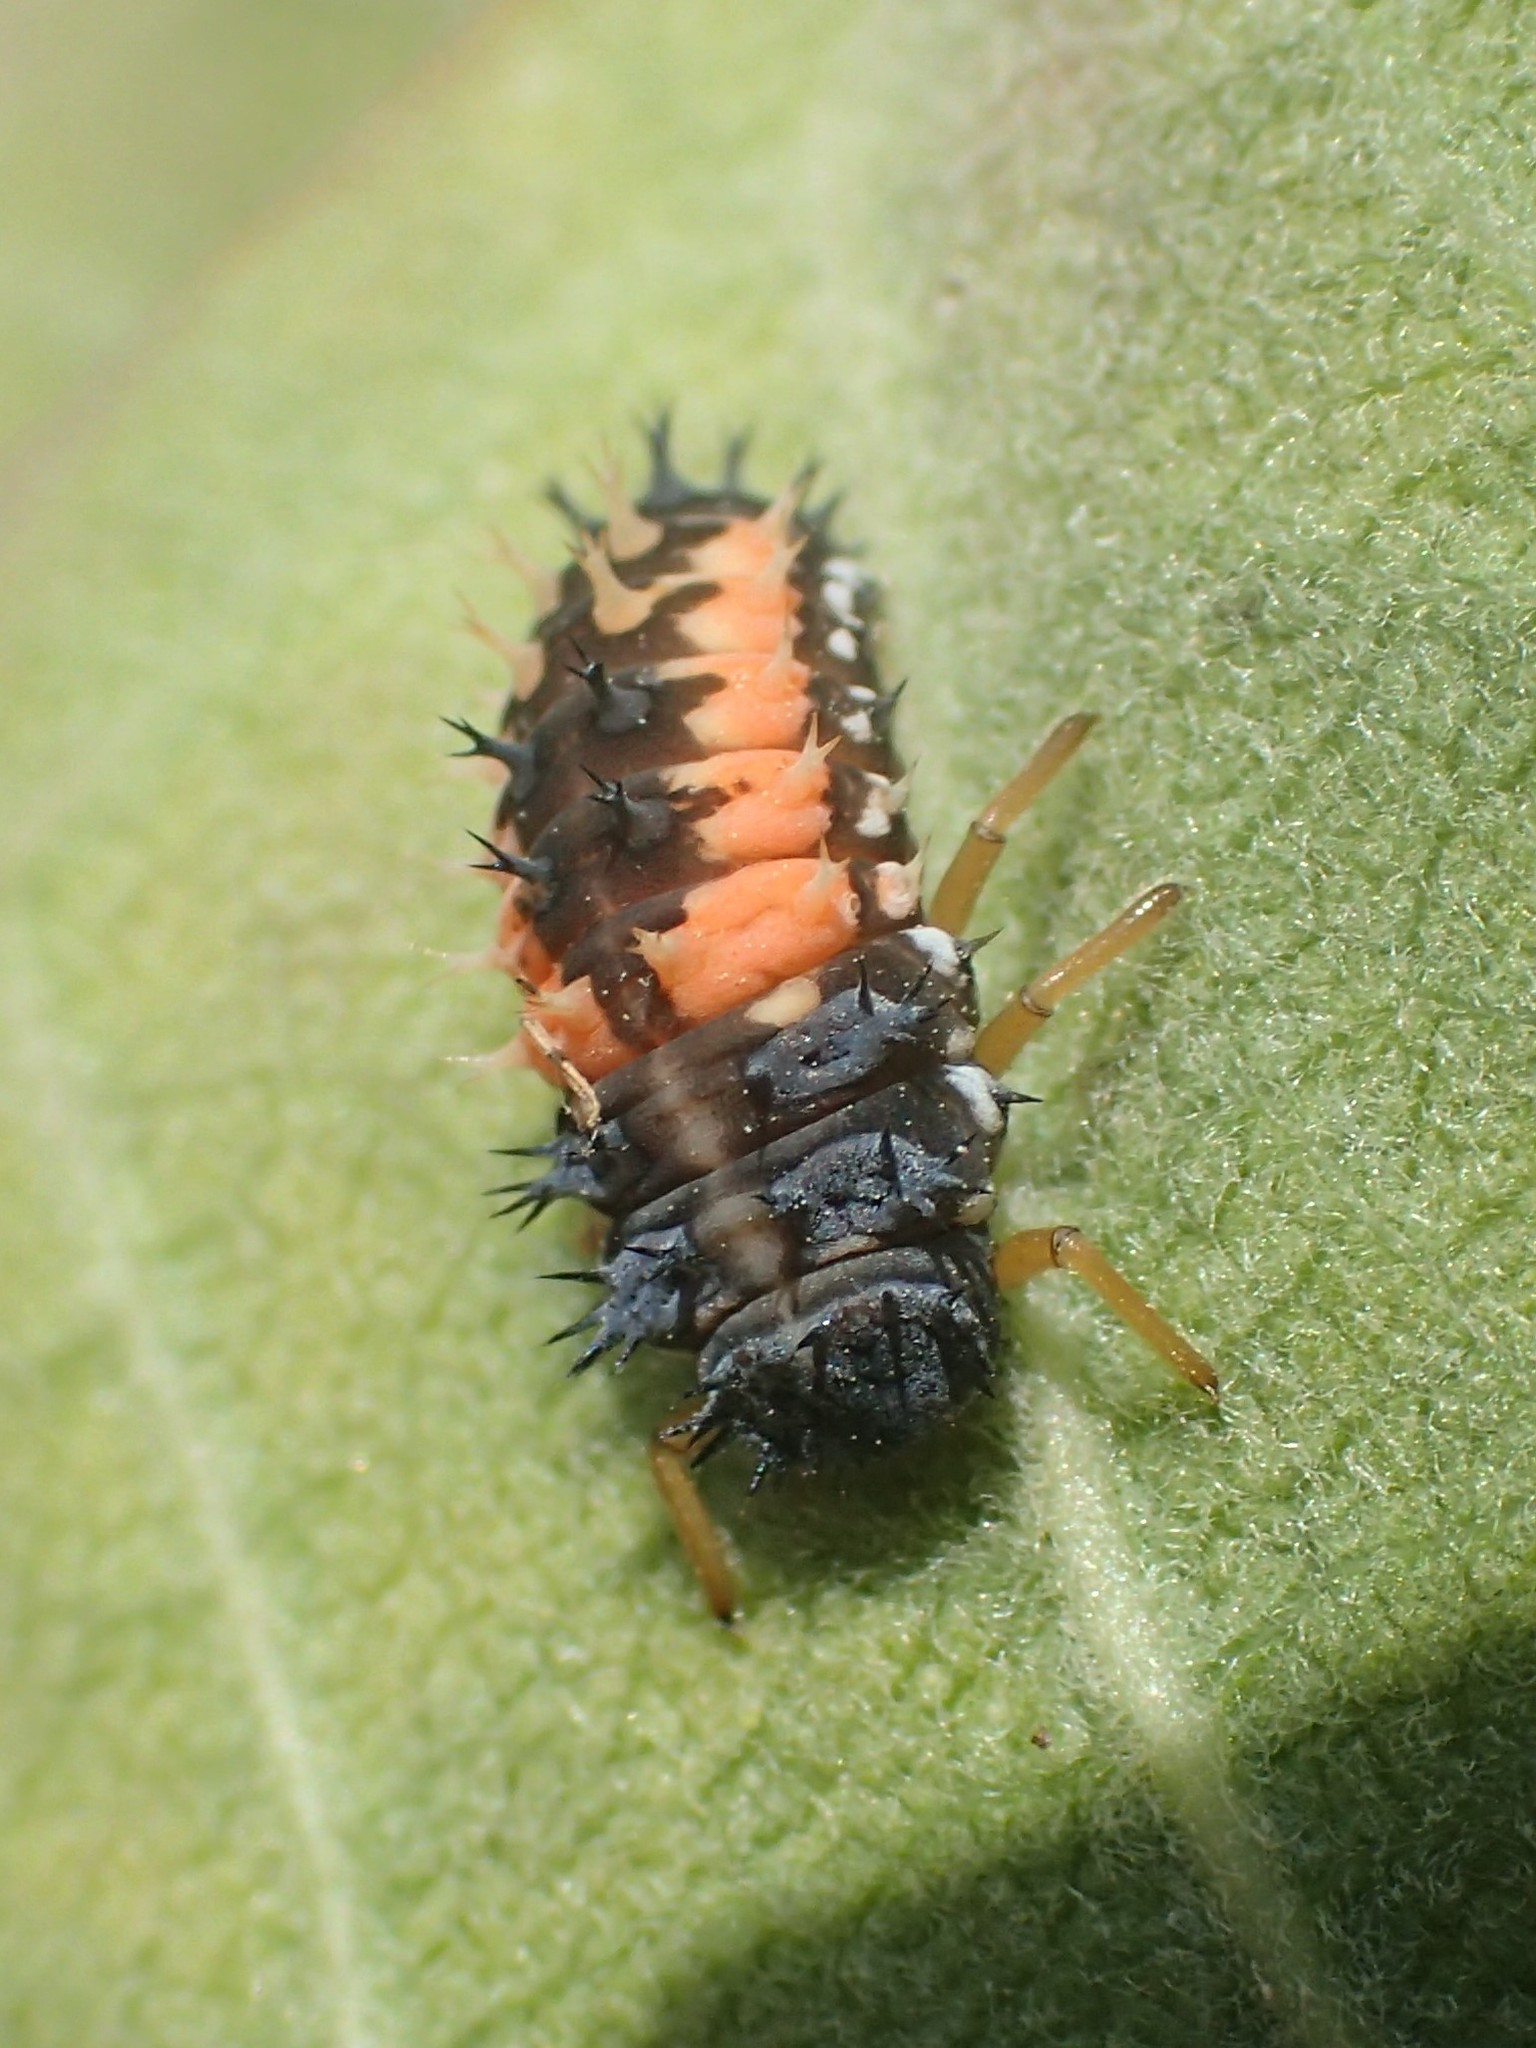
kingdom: Animalia
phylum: Arthropoda
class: Insecta
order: Coleoptera
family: Coccinellidae
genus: Harmonia
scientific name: Harmonia axyridis
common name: Harlequin ladybird
